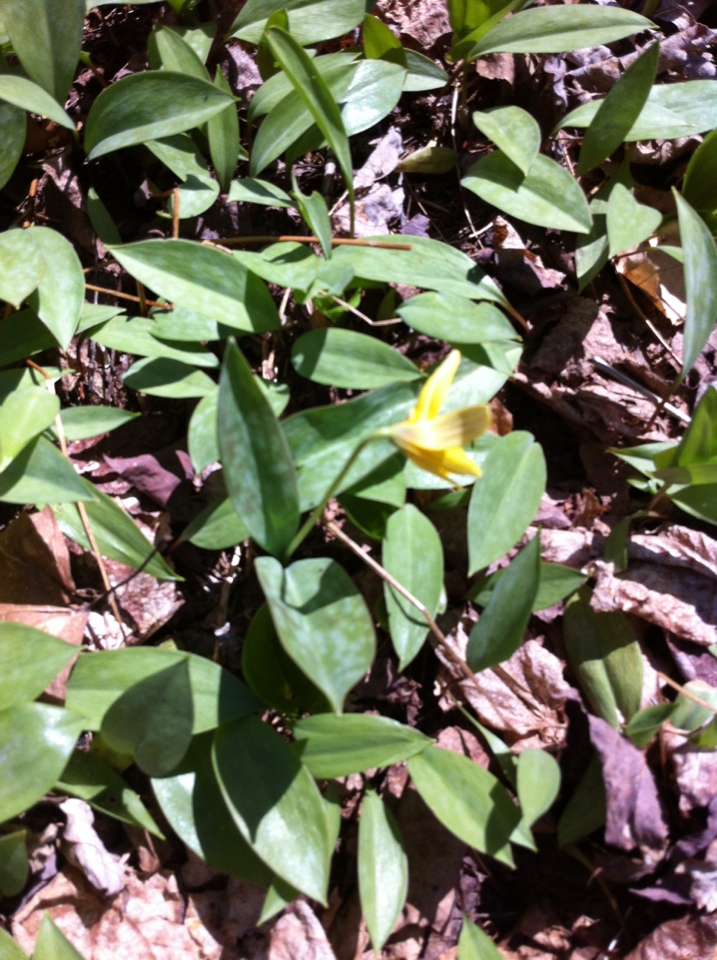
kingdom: Plantae
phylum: Tracheophyta
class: Liliopsida
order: Liliales
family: Liliaceae
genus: Erythronium
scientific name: Erythronium americanum
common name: Yellow adder's-tongue
